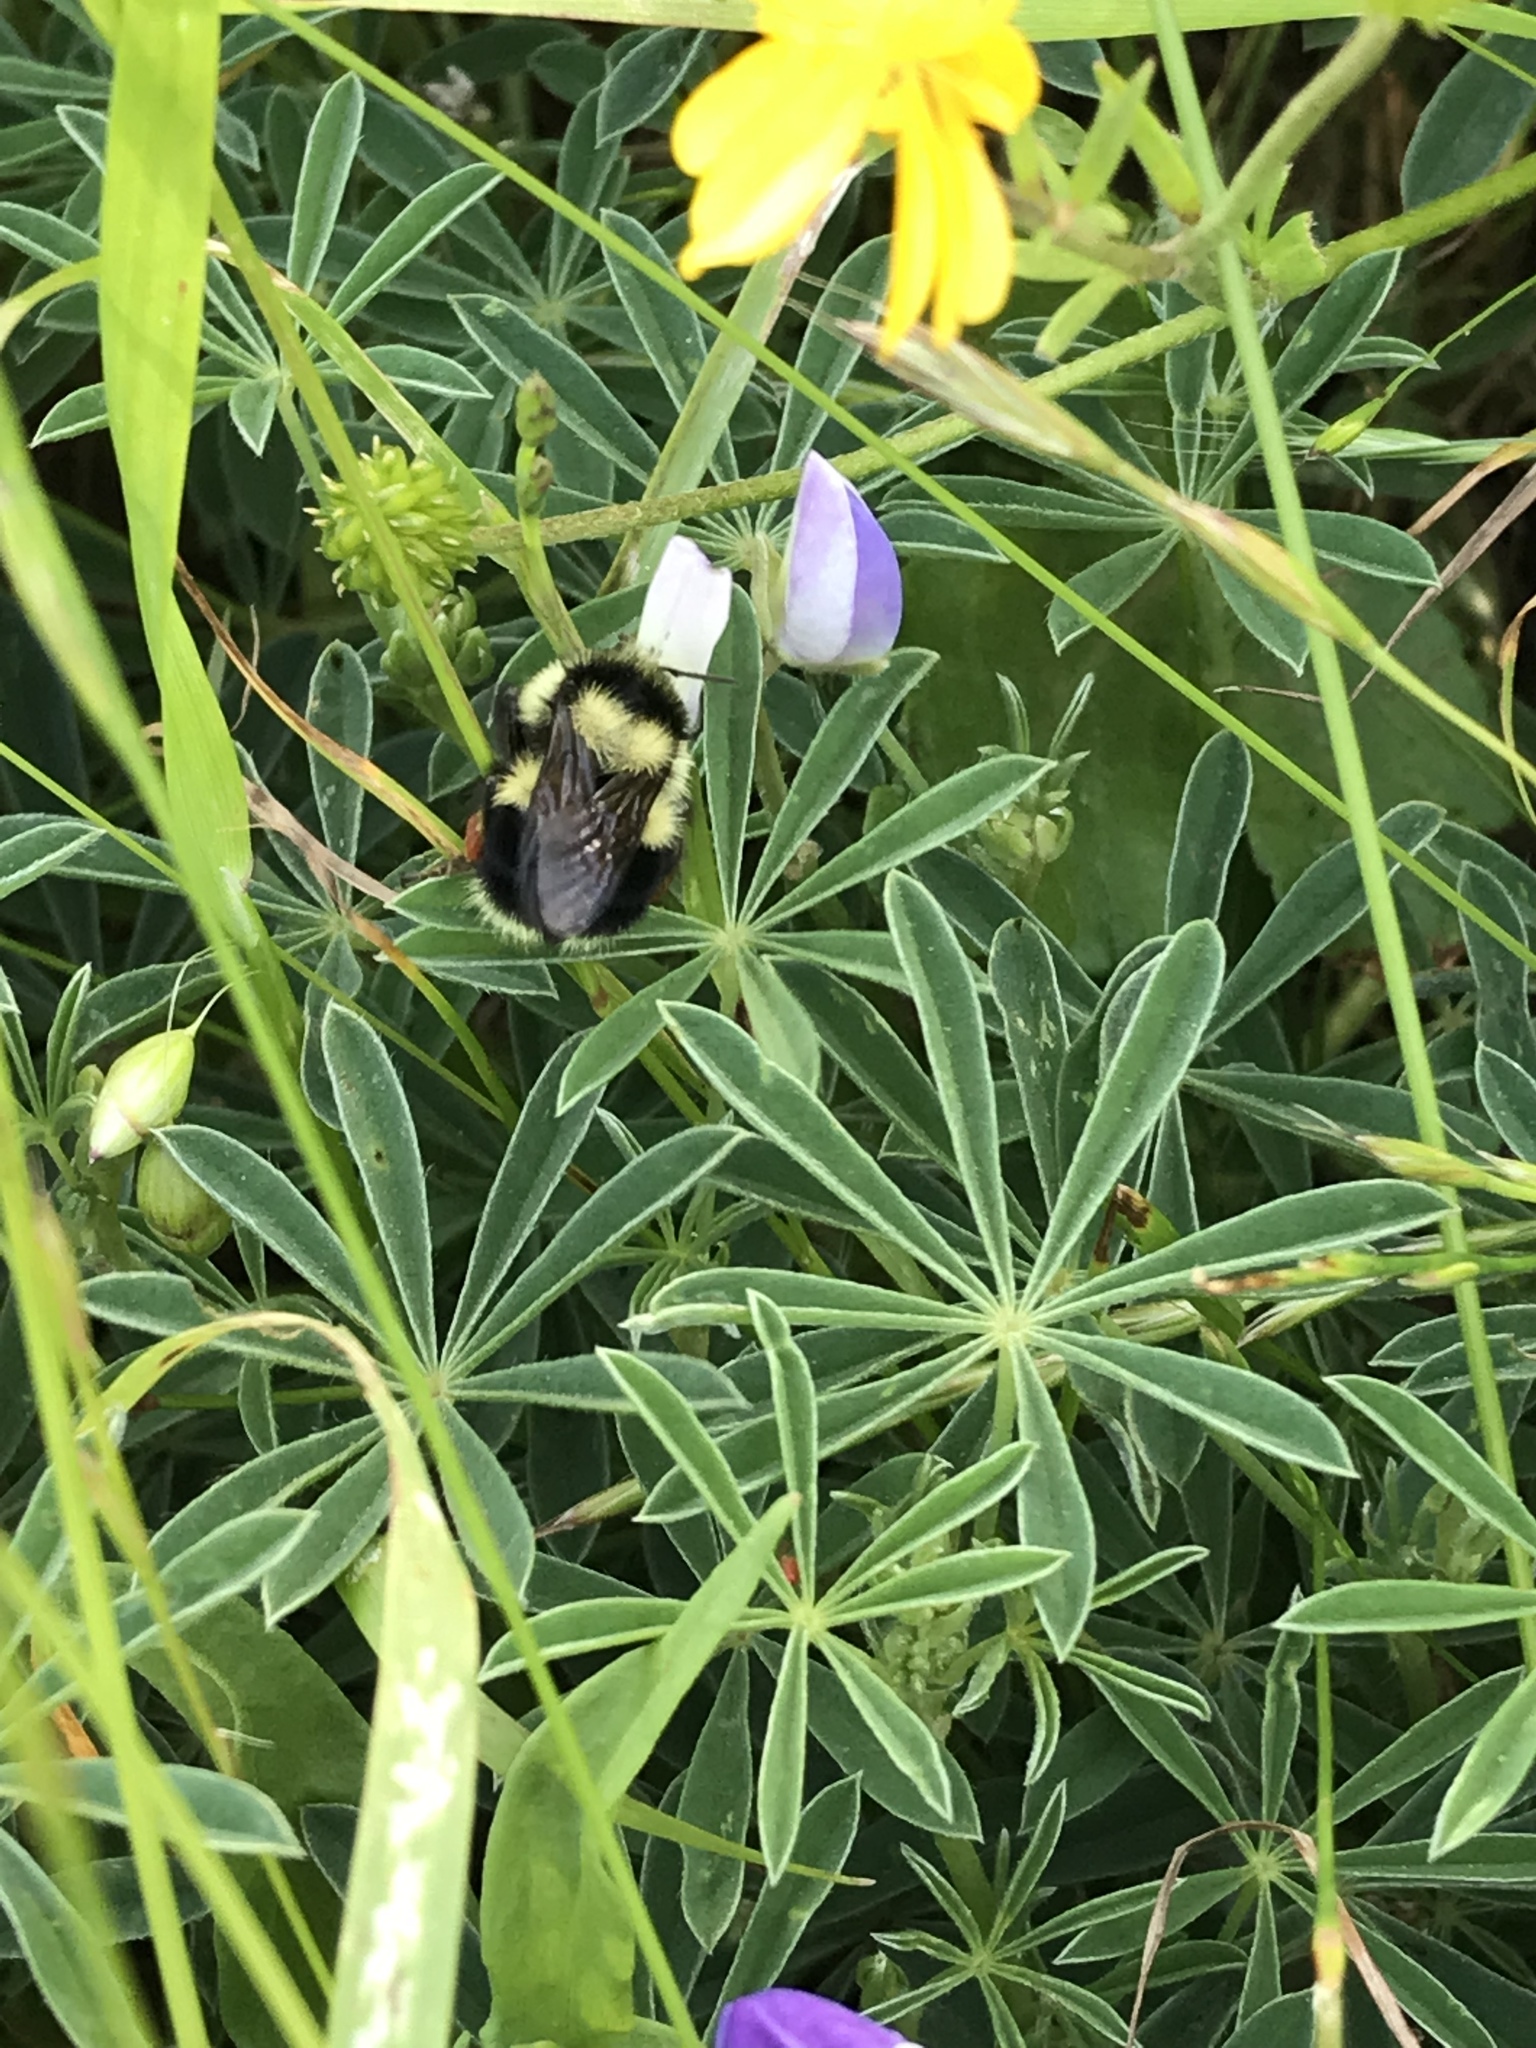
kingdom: Animalia
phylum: Arthropoda
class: Insecta
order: Hymenoptera
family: Apidae
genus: Bombus
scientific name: Bombus melanopygus
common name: Black tail bumble bee
